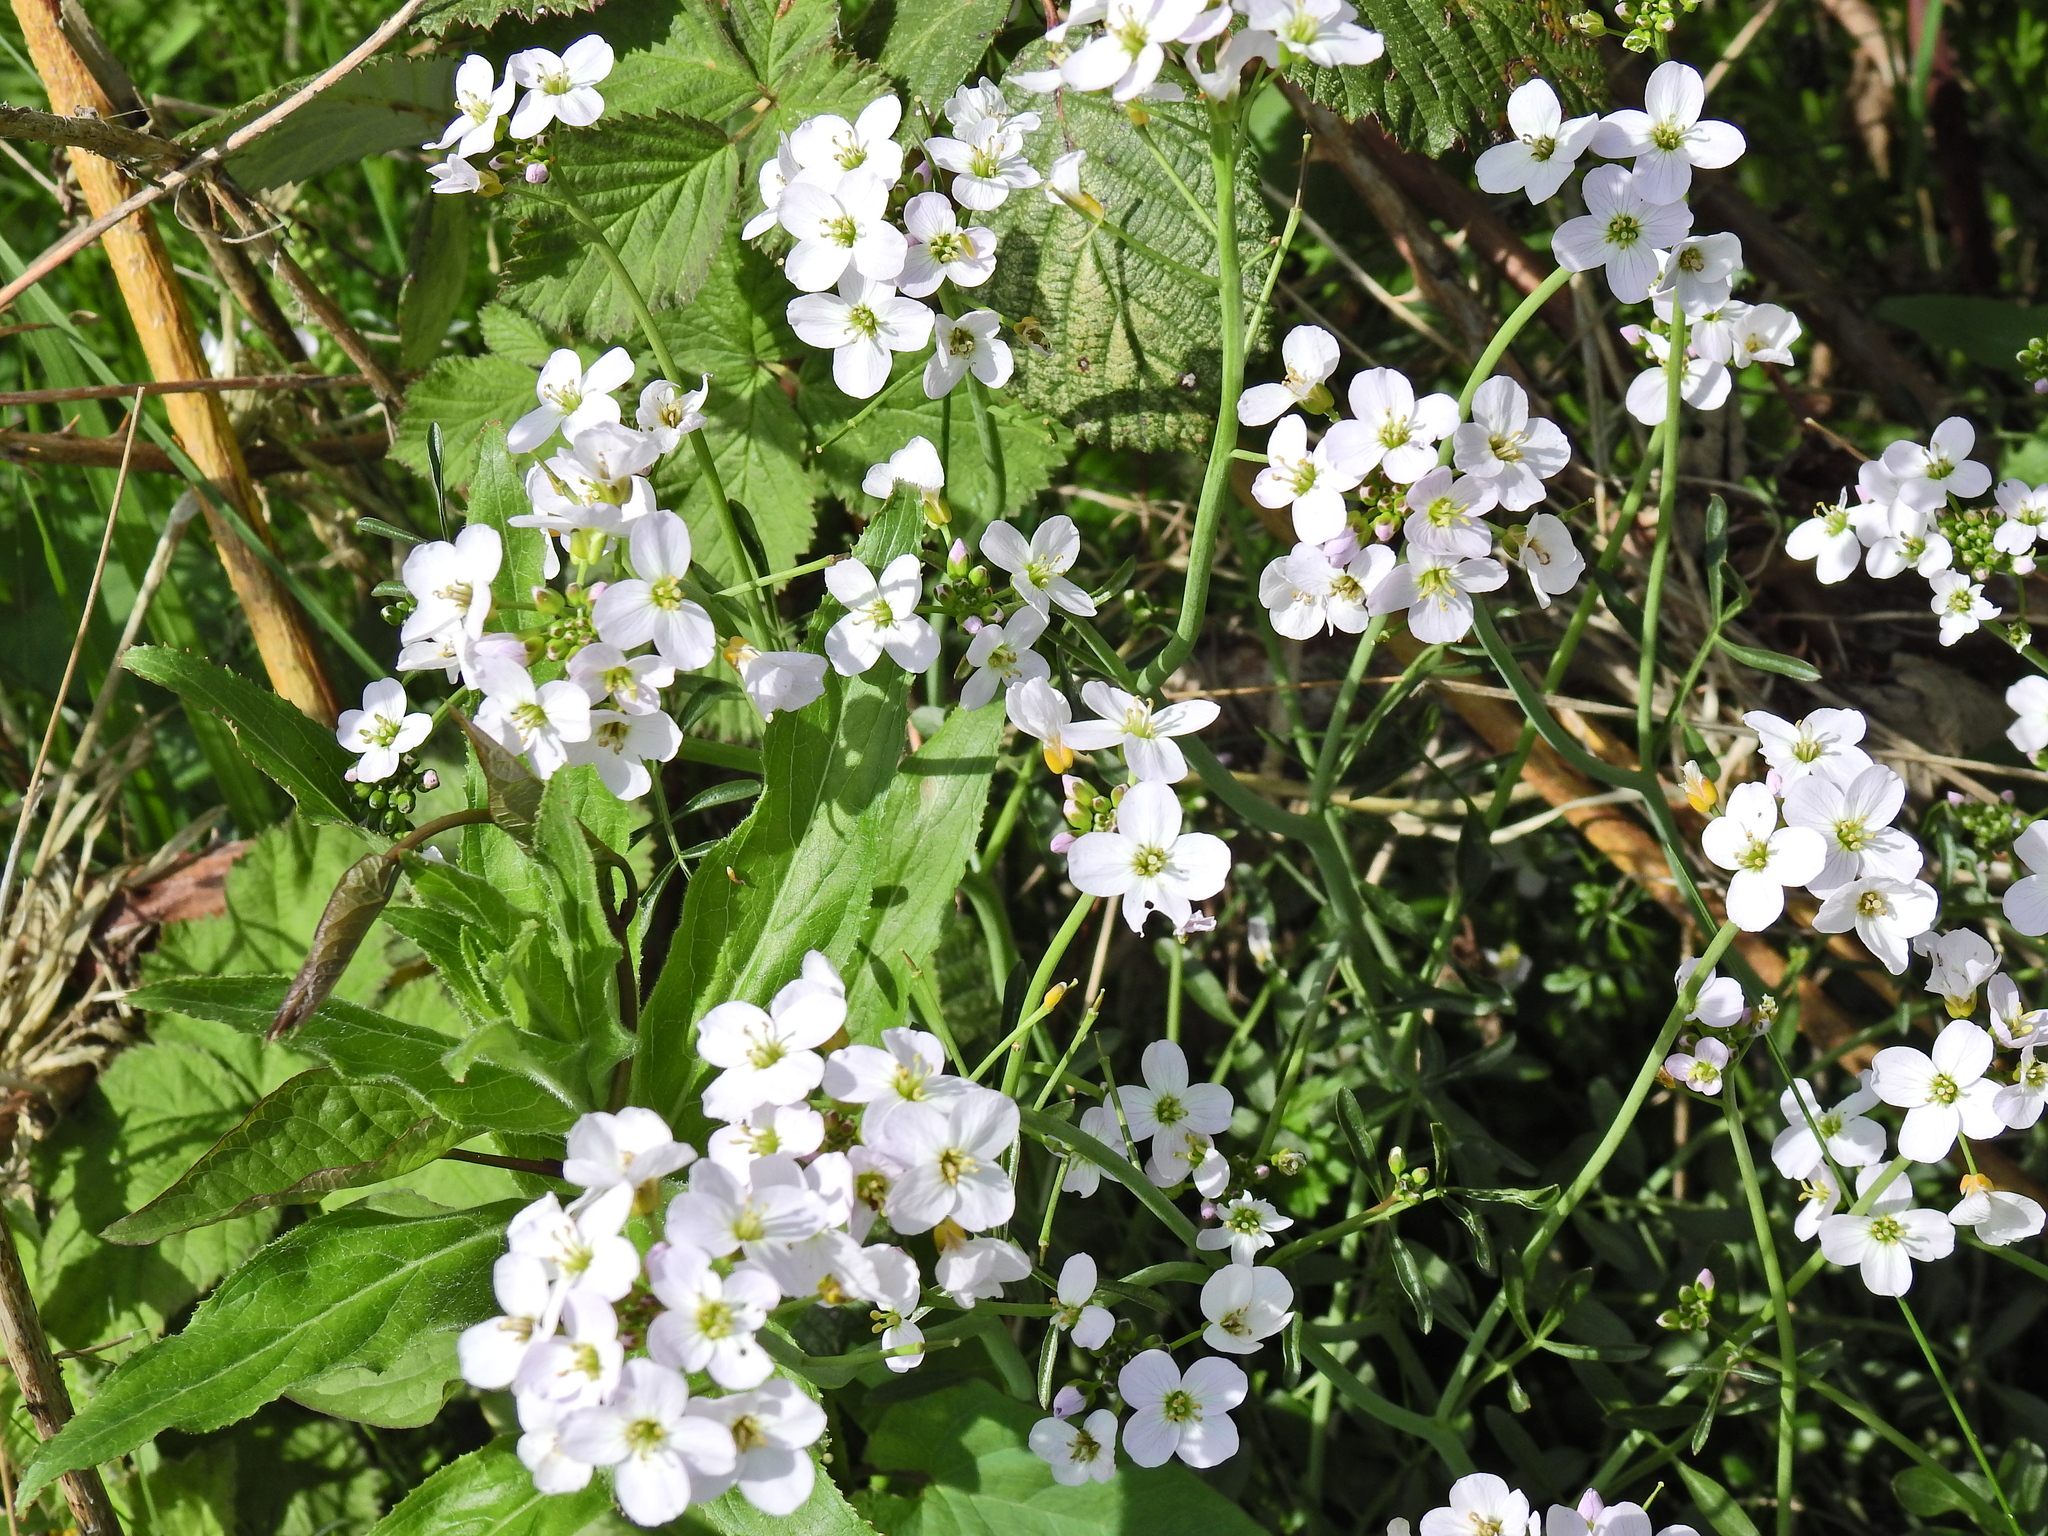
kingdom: Plantae
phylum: Tracheophyta
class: Magnoliopsida
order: Brassicales
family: Brassicaceae
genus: Cardamine
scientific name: Cardamine pratensis
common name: Cuckoo flower
